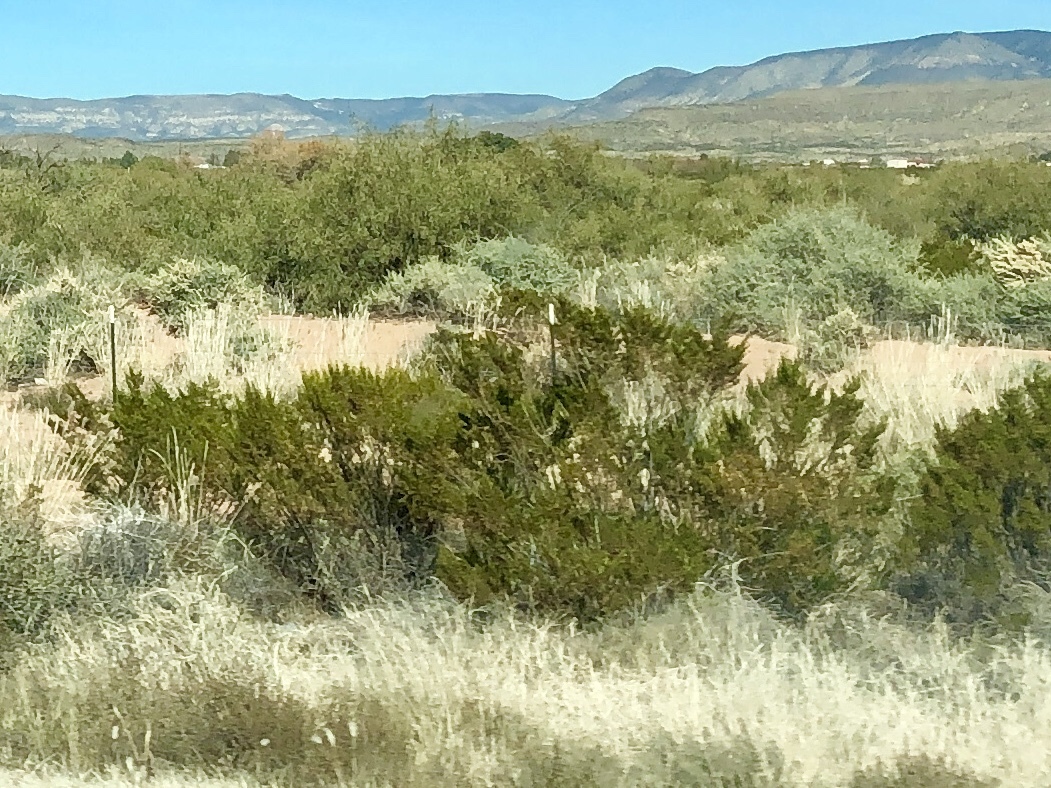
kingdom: Plantae
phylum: Tracheophyta
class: Magnoliopsida
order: Zygophyllales
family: Zygophyllaceae
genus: Larrea
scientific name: Larrea tridentata
